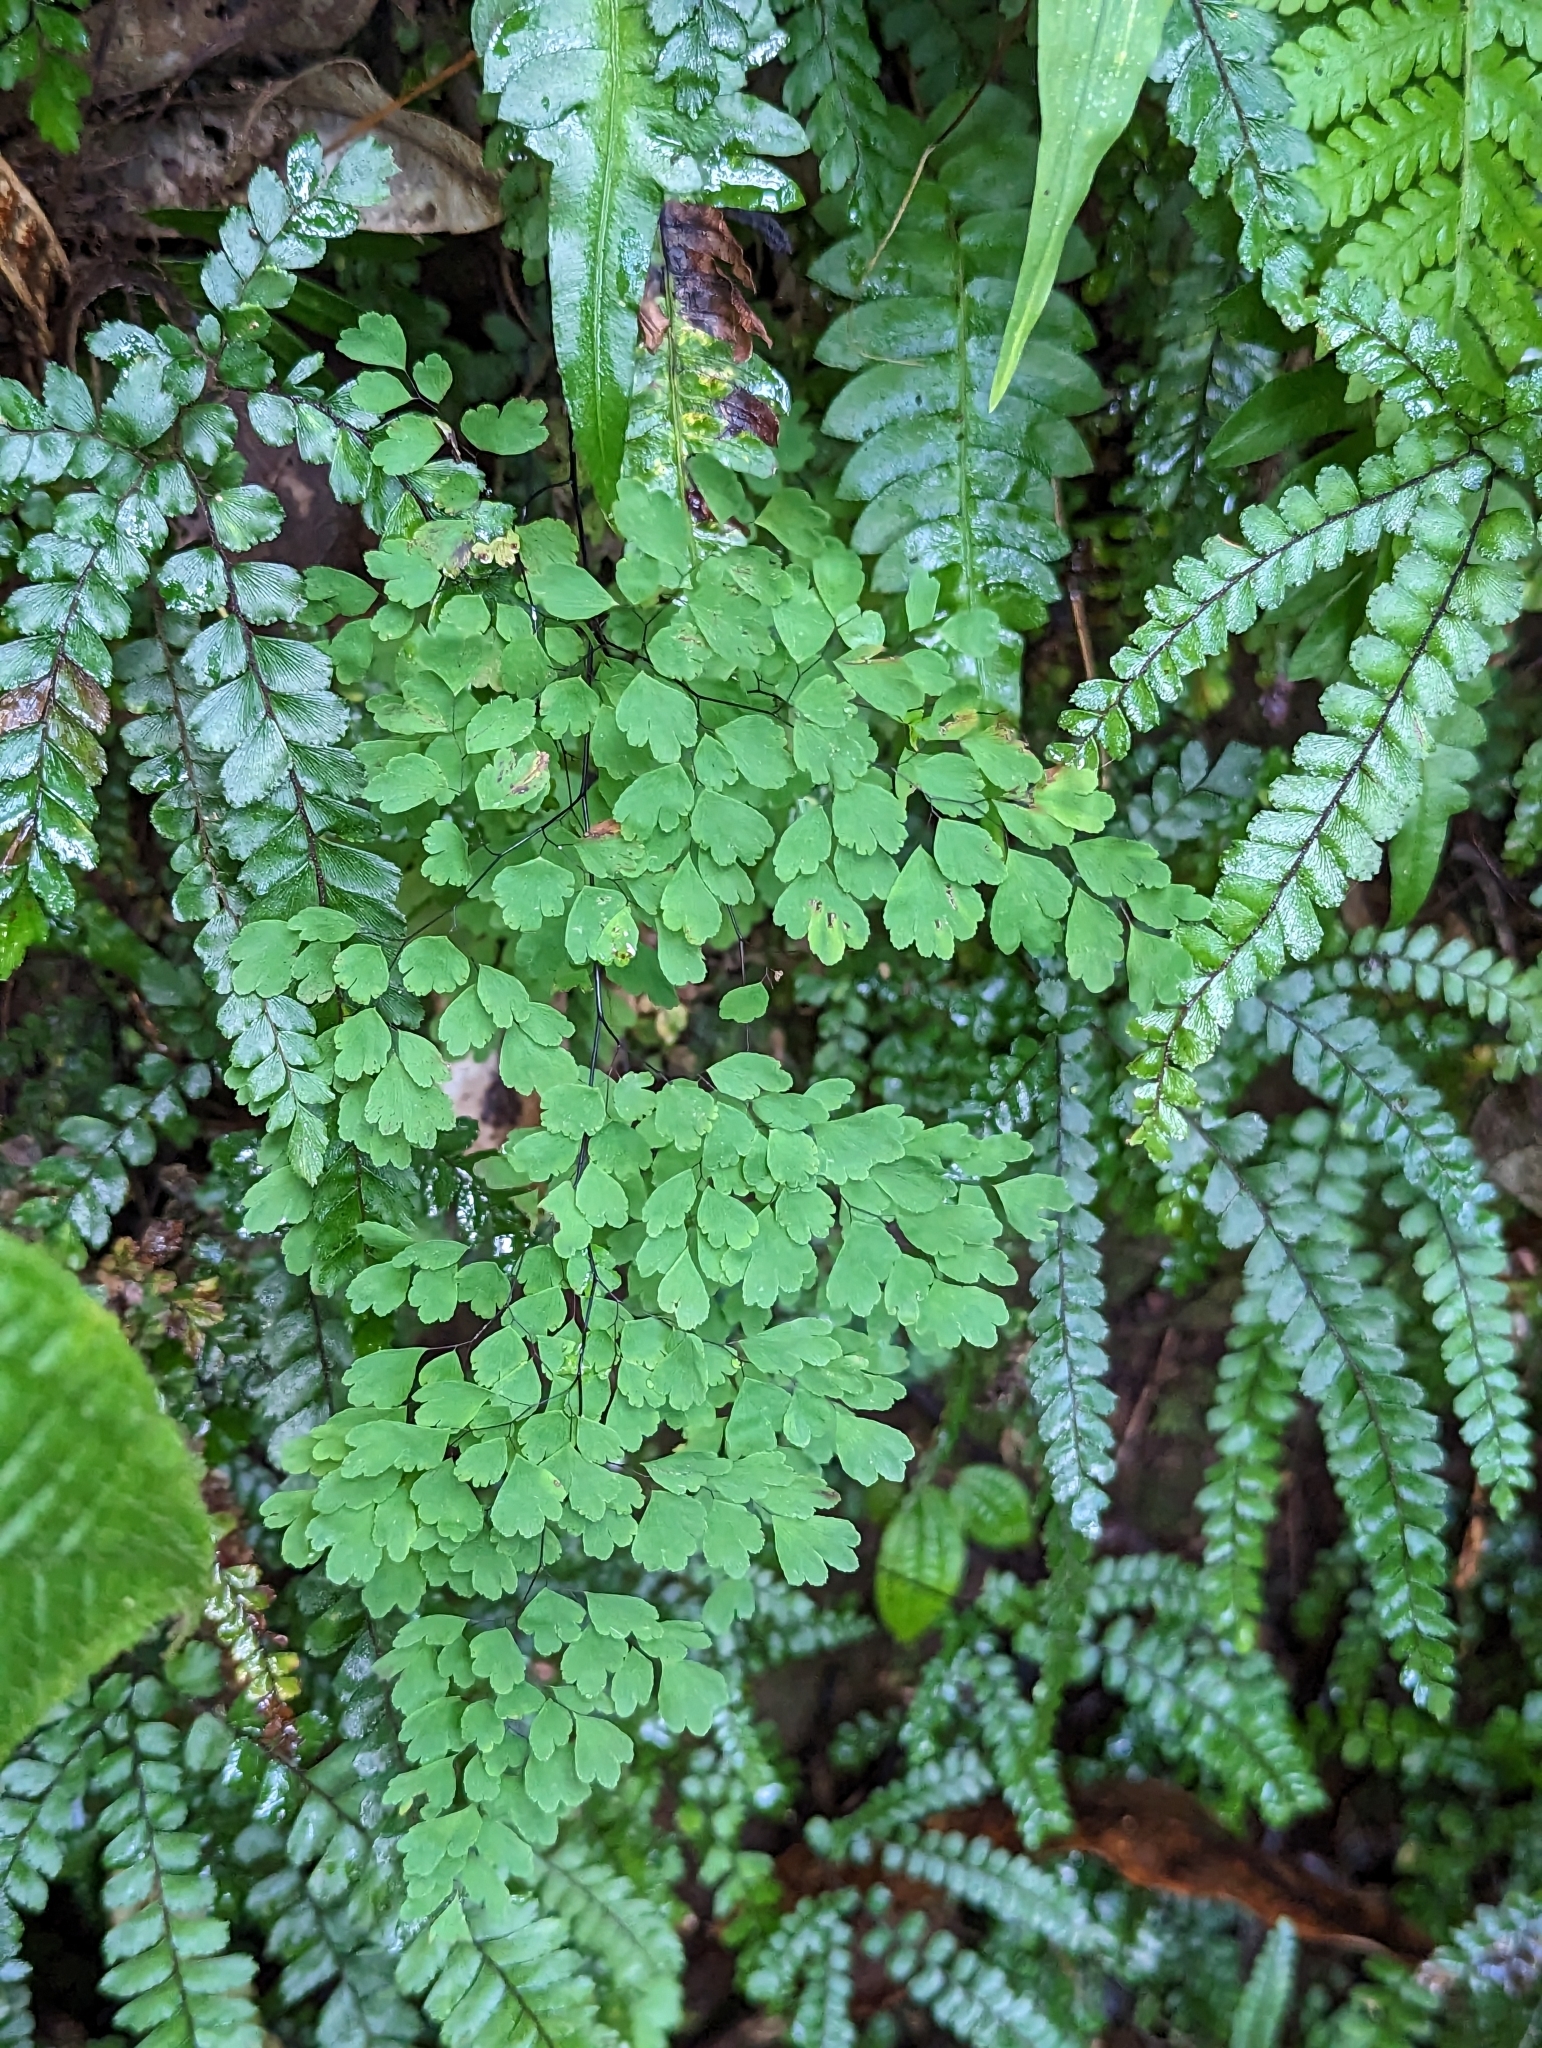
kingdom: Plantae
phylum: Tracheophyta
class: Polypodiopsida
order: Polypodiales
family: Pteridaceae
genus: Adiantum
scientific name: Adiantum raddianum
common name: Delta maidenhair fern
